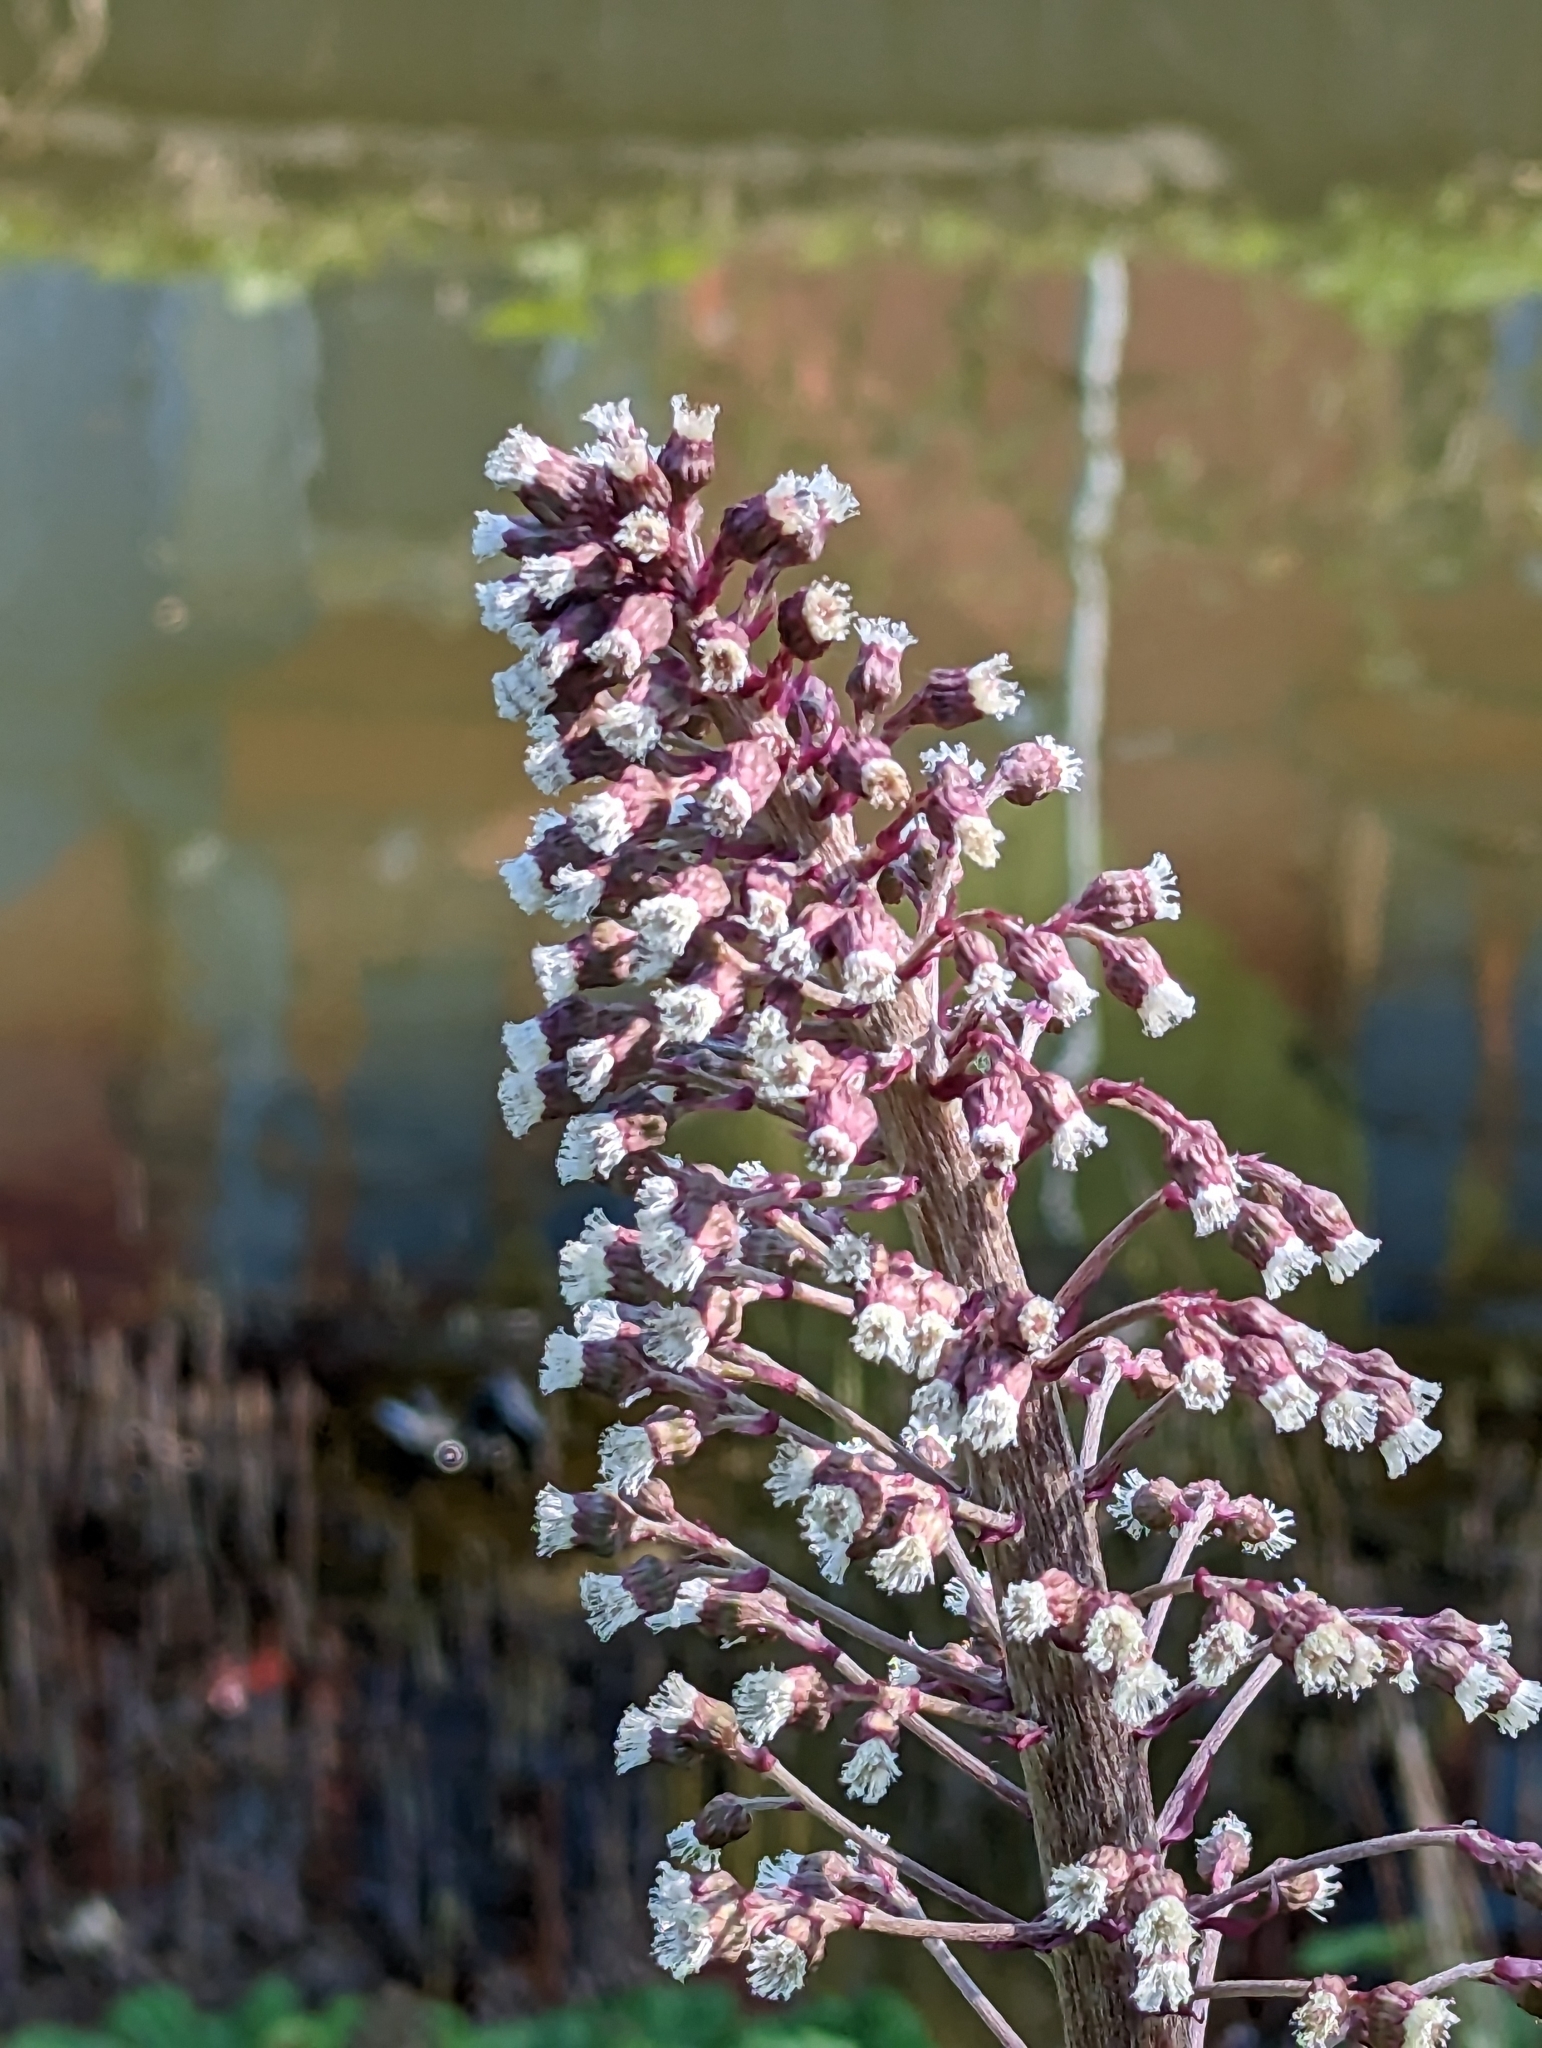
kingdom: Plantae
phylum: Tracheophyta
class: Magnoliopsida
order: Asterales
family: Asteraceae
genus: Petasites
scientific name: Petasites hybridus
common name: Butterbur
